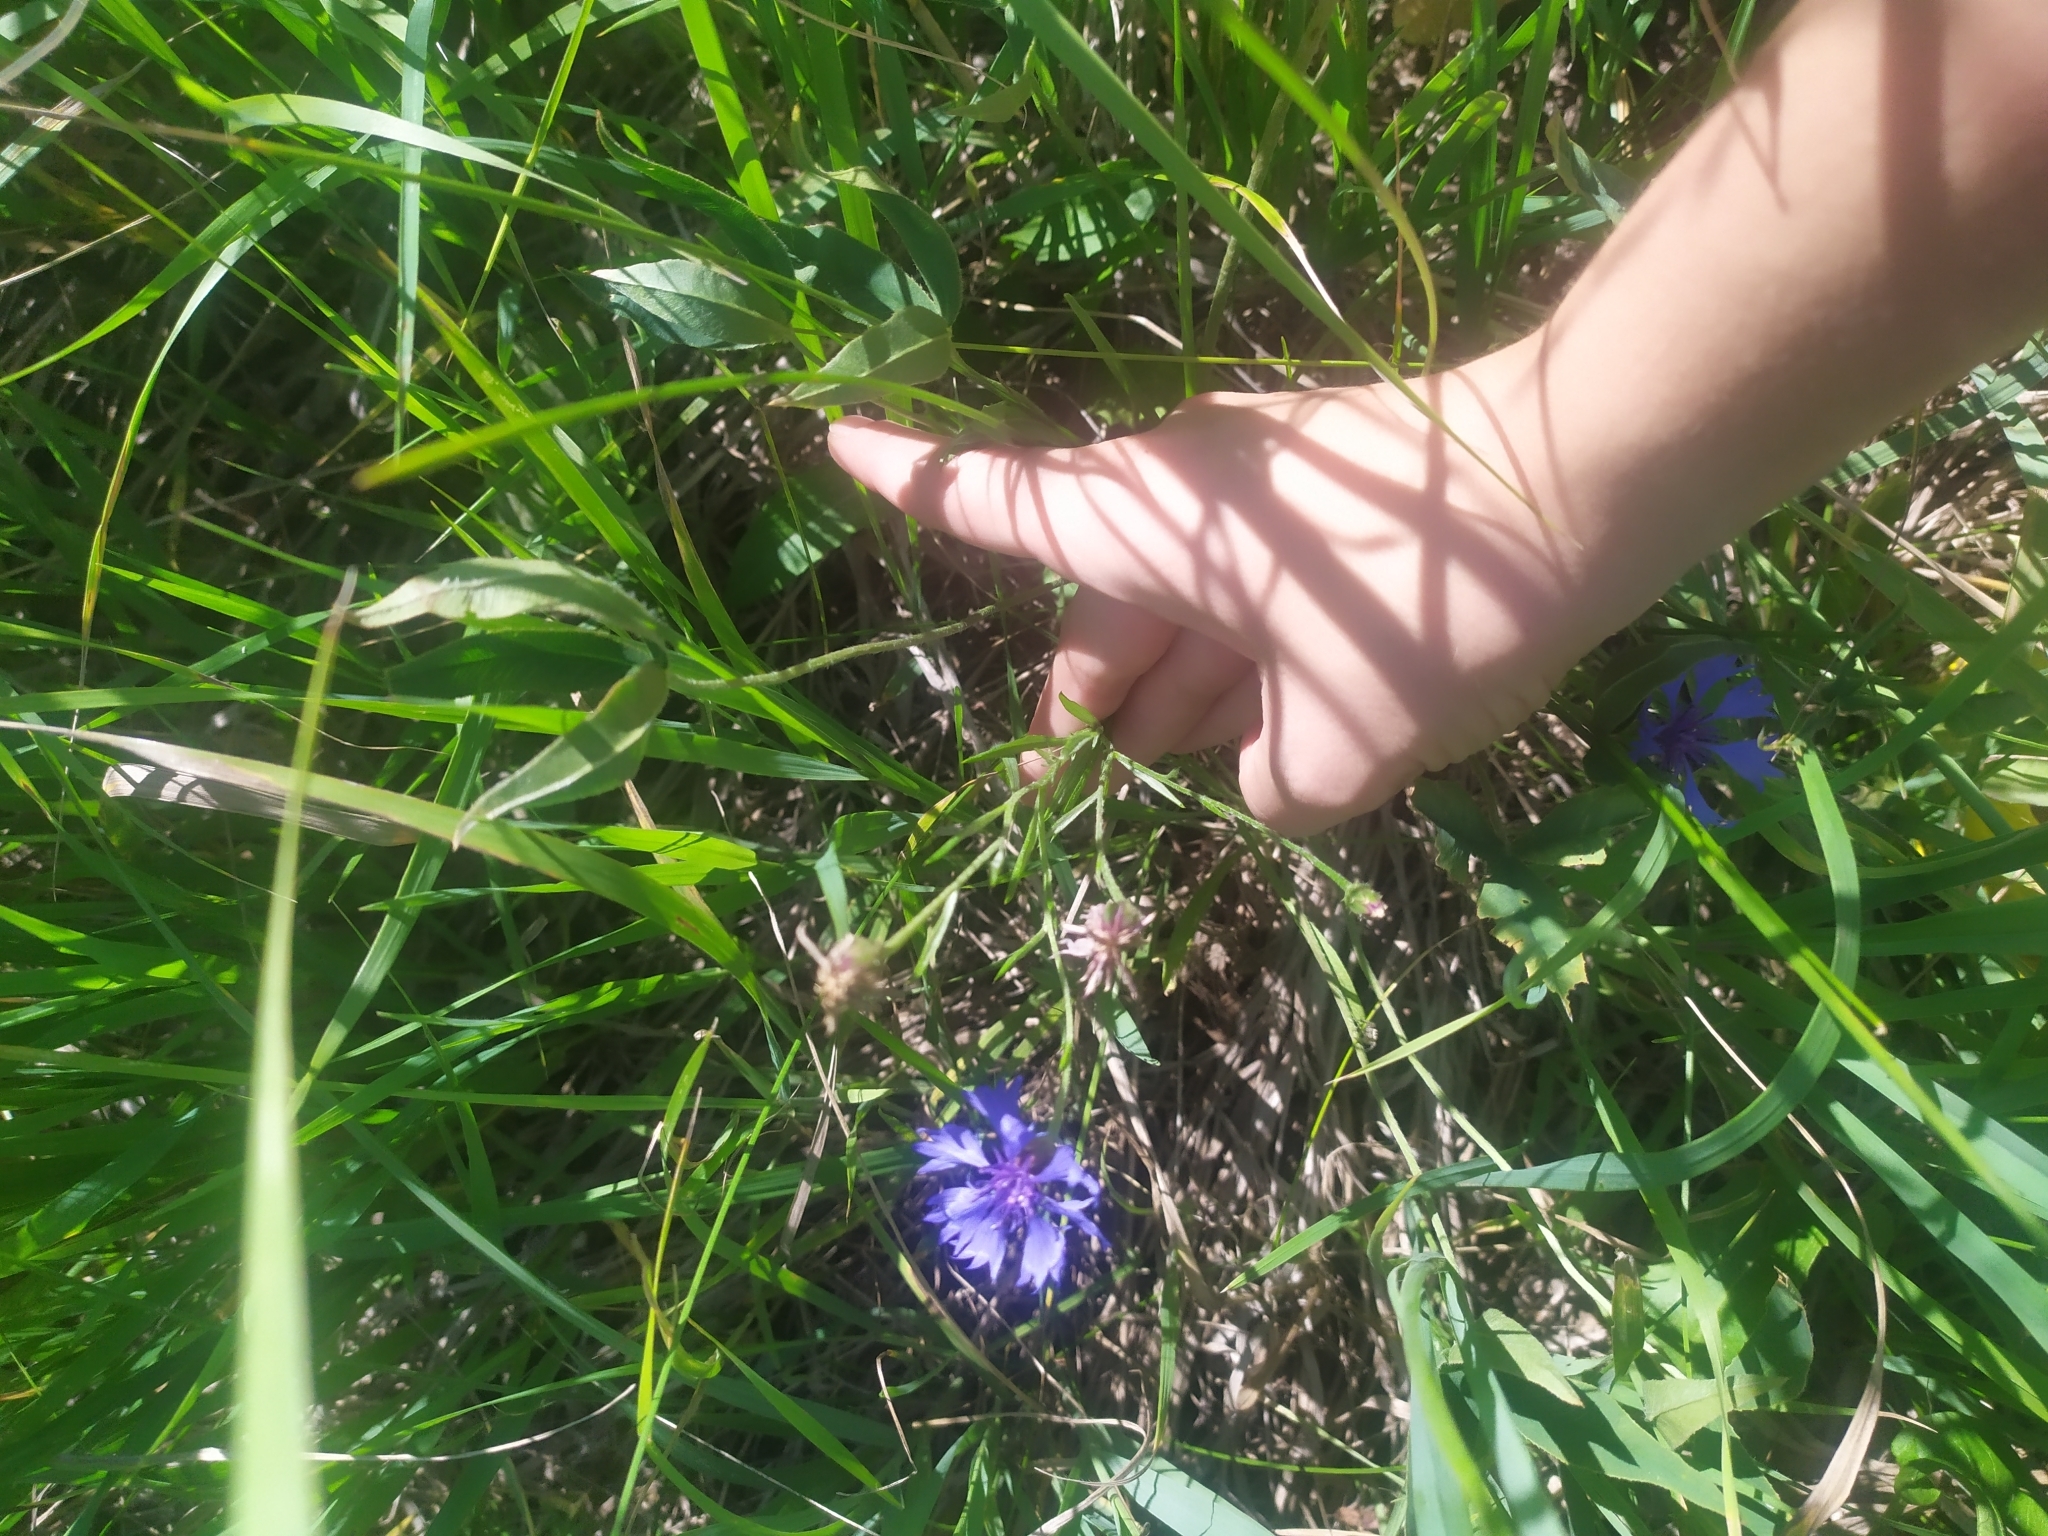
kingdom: Plantae
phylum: Tracheophyta
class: Magnoliopsida
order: Asterales
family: Asteraceae
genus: Centaurea
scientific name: Centaurea cyanus
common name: Cornflower
